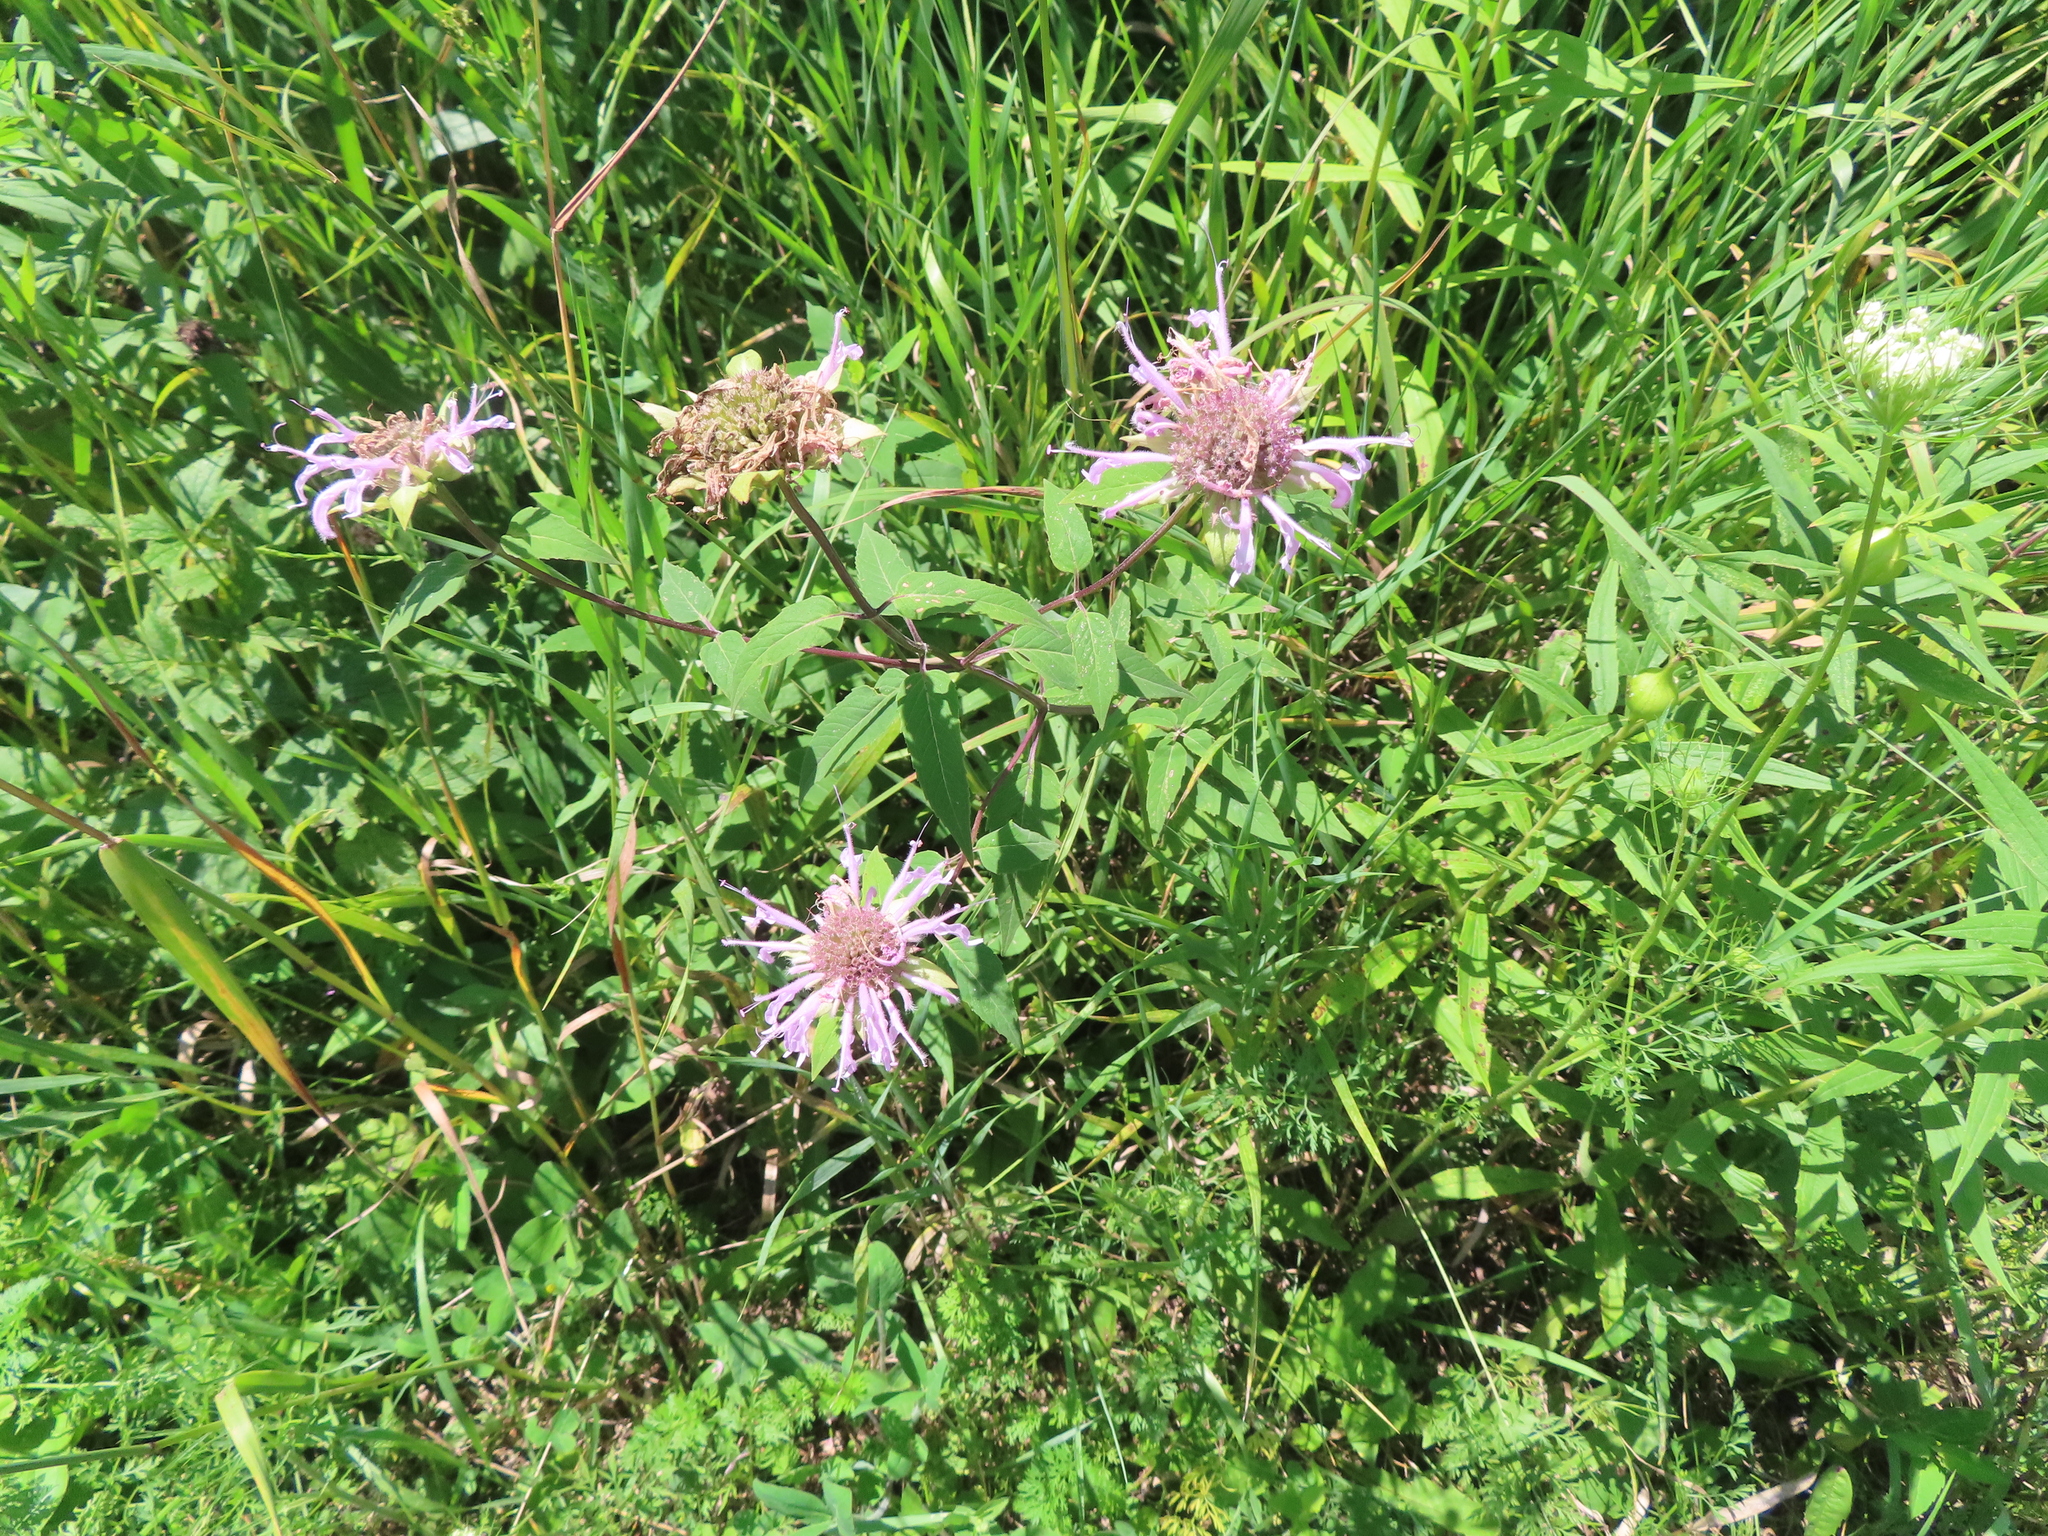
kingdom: Plantae
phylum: Tracheophyta
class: Magnoliopsida
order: Lamiales
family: Lamiaceae
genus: Monarda
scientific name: Monarda fistulosa
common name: Purple beebalm
